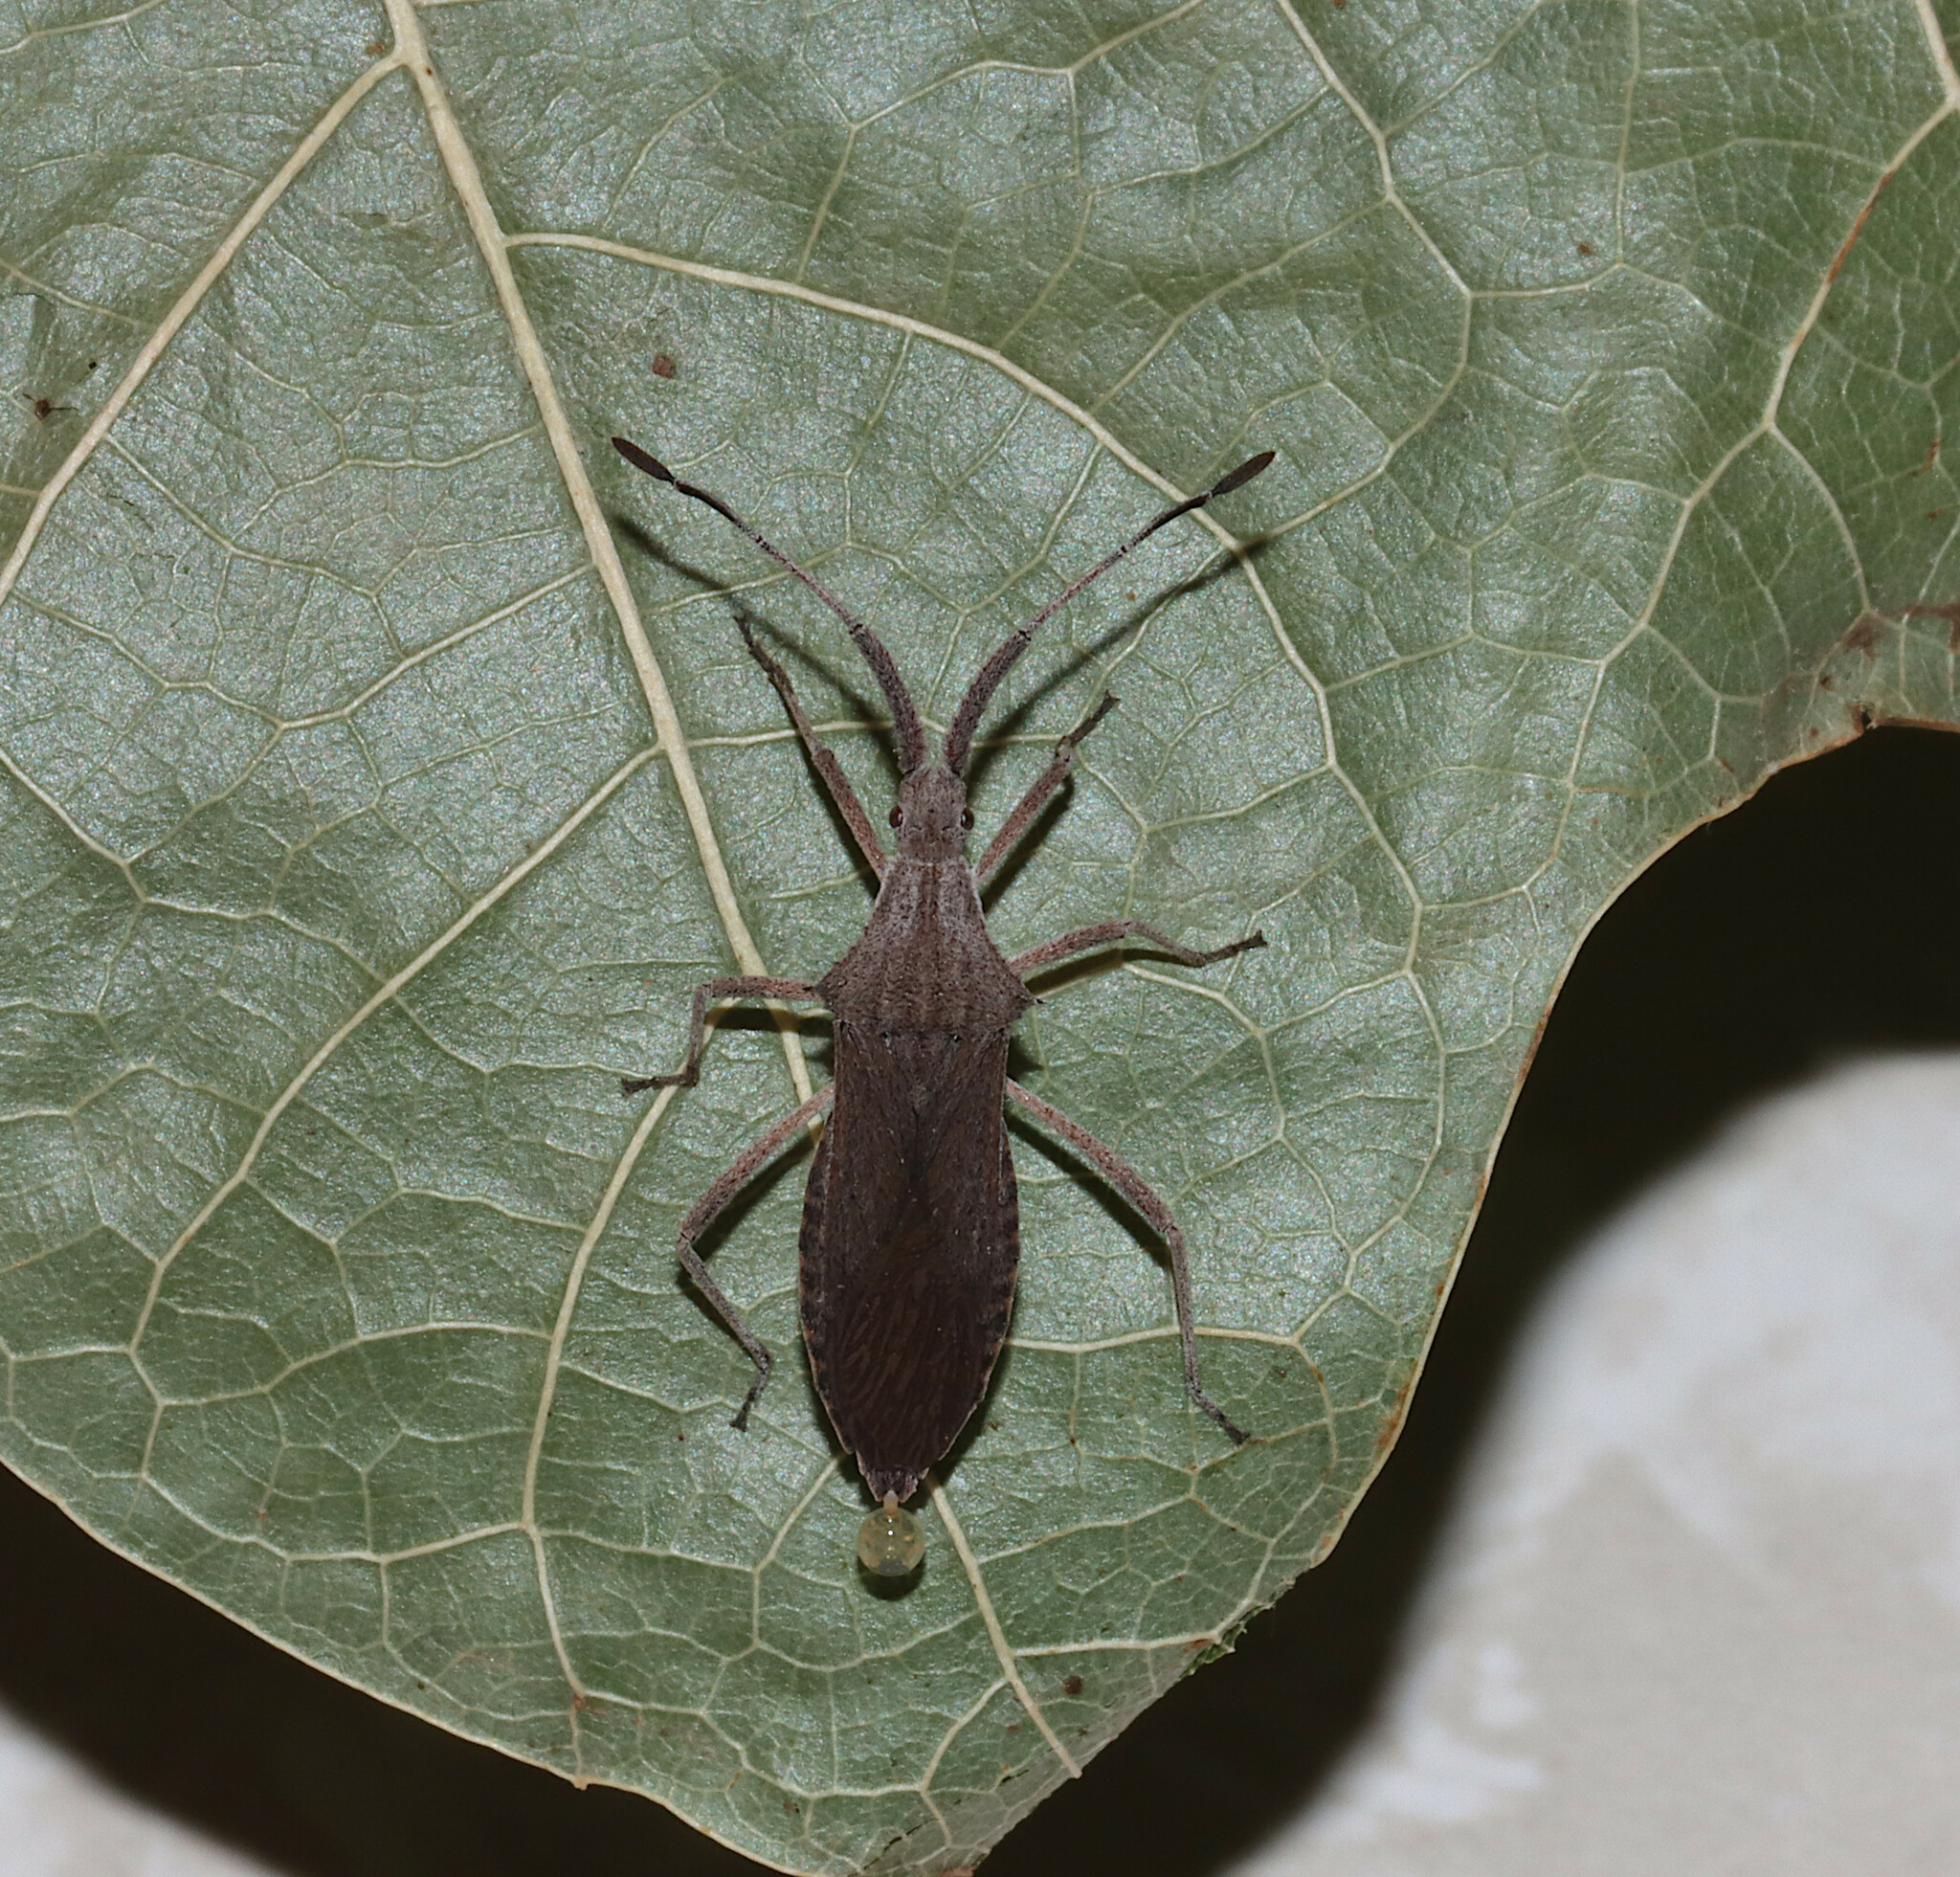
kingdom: Animalia
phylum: Arthropoda
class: Insecta
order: Hemiptera
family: Coreidae
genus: Chariesterus
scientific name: Chariesterus antennator
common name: Flat horned coreid
